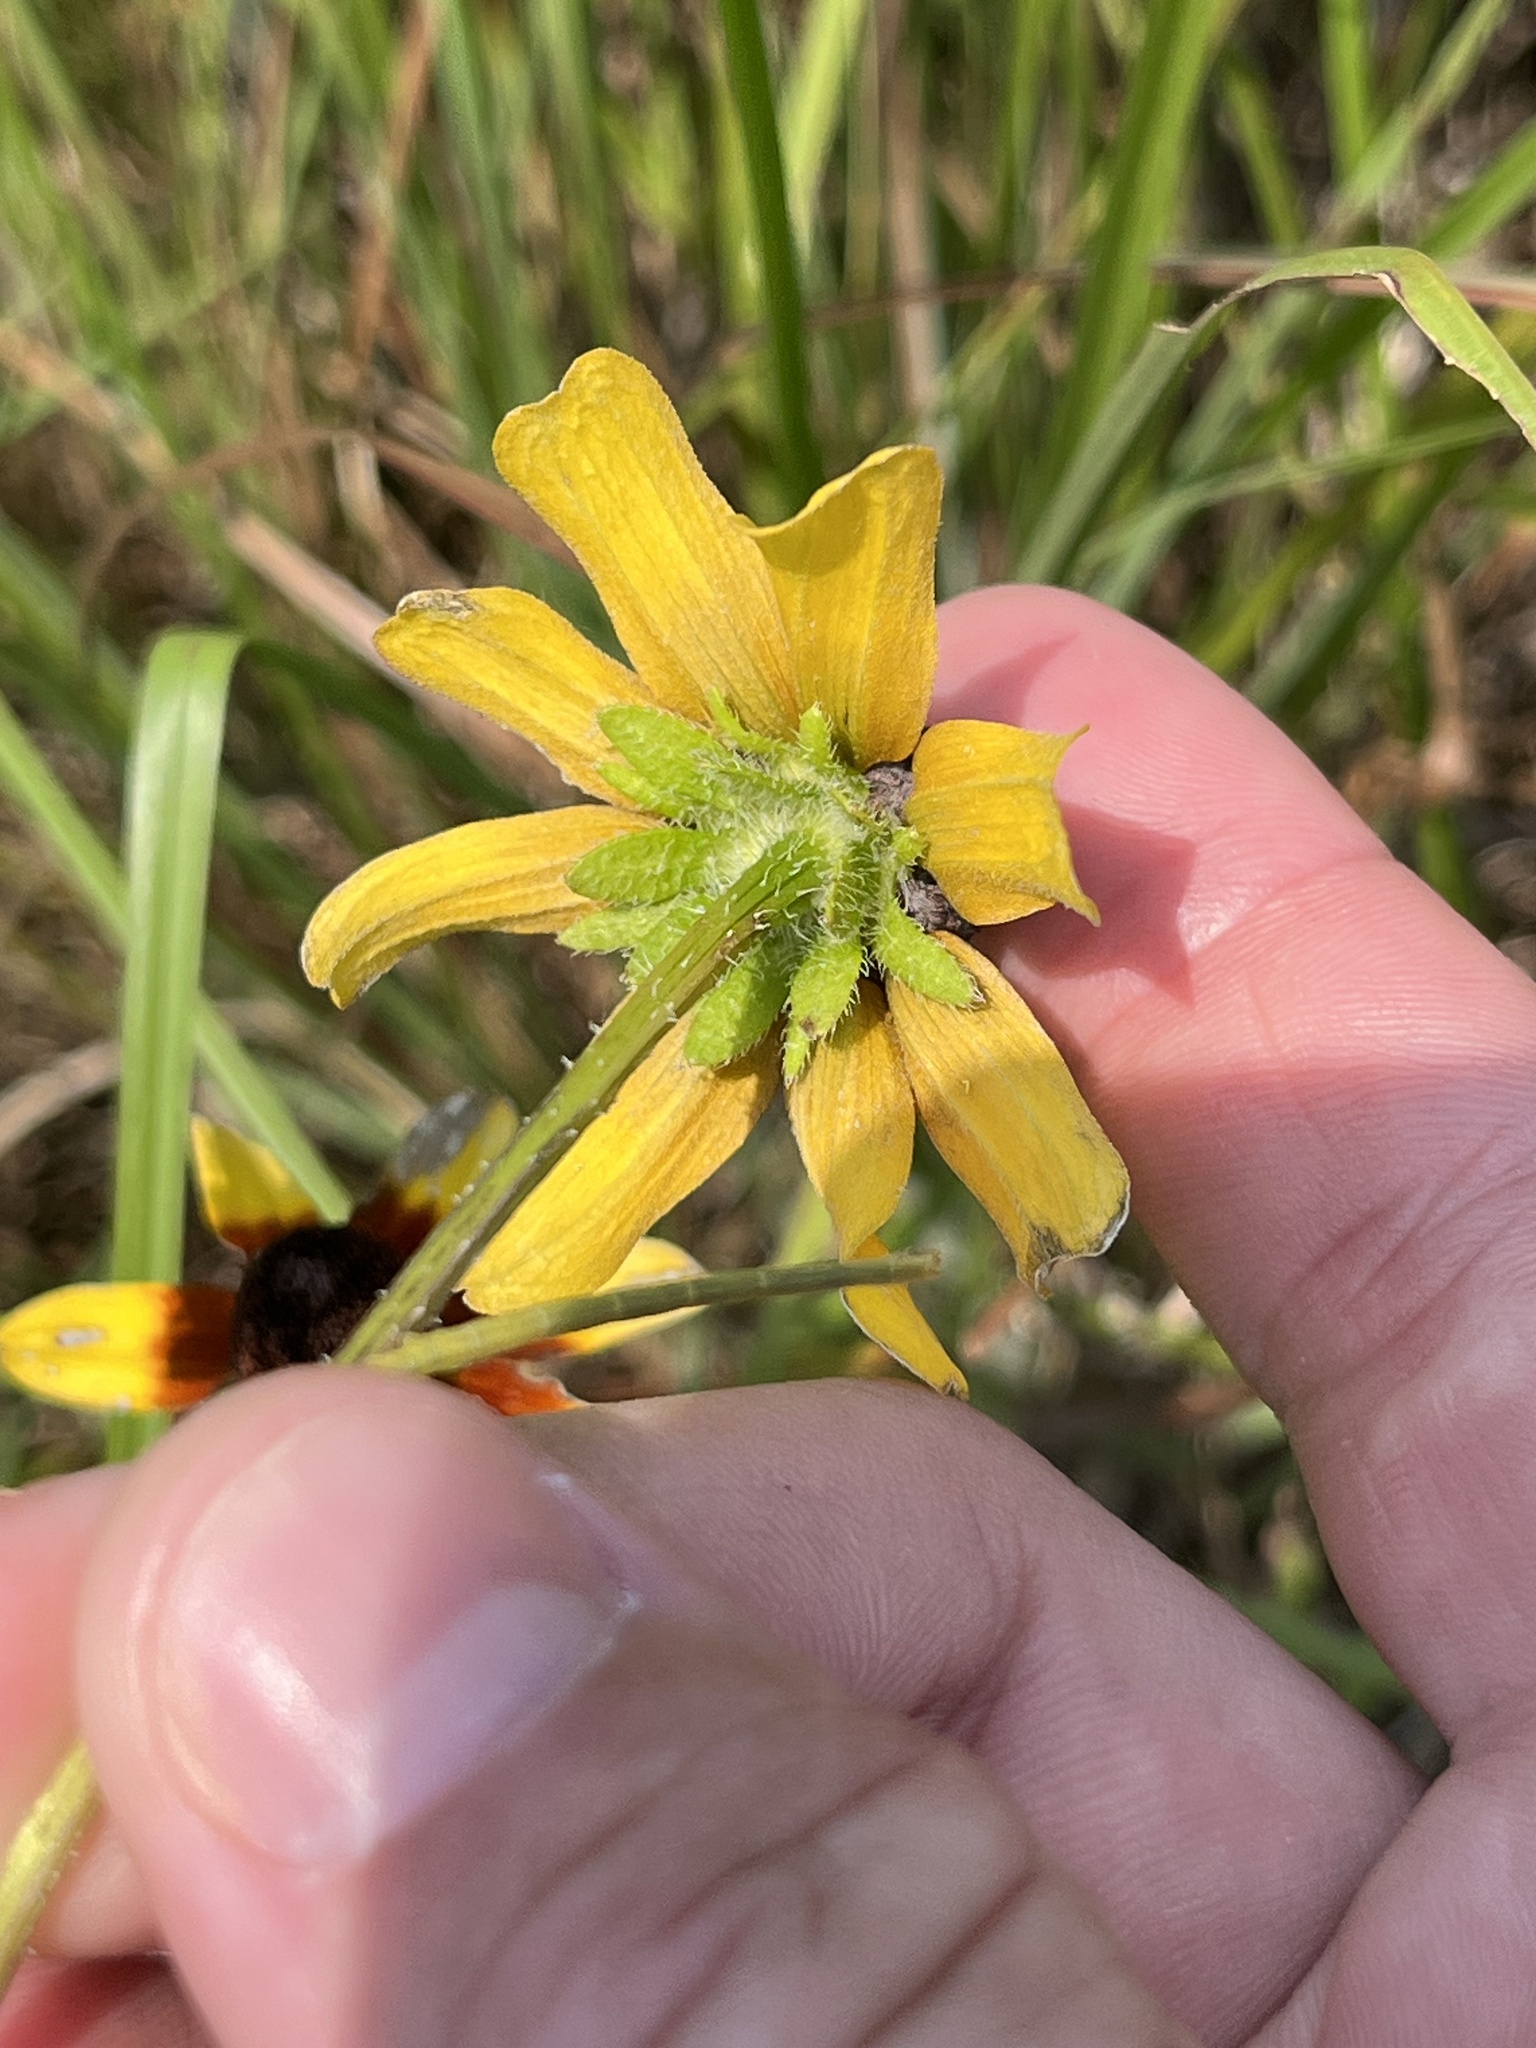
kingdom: Plantae
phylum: Tracheophyta
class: Magnoliopsida
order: Asterales
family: Asteraceae
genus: Rudbeckia
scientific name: Rudbeckia hirta
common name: Black-eyed-susan
